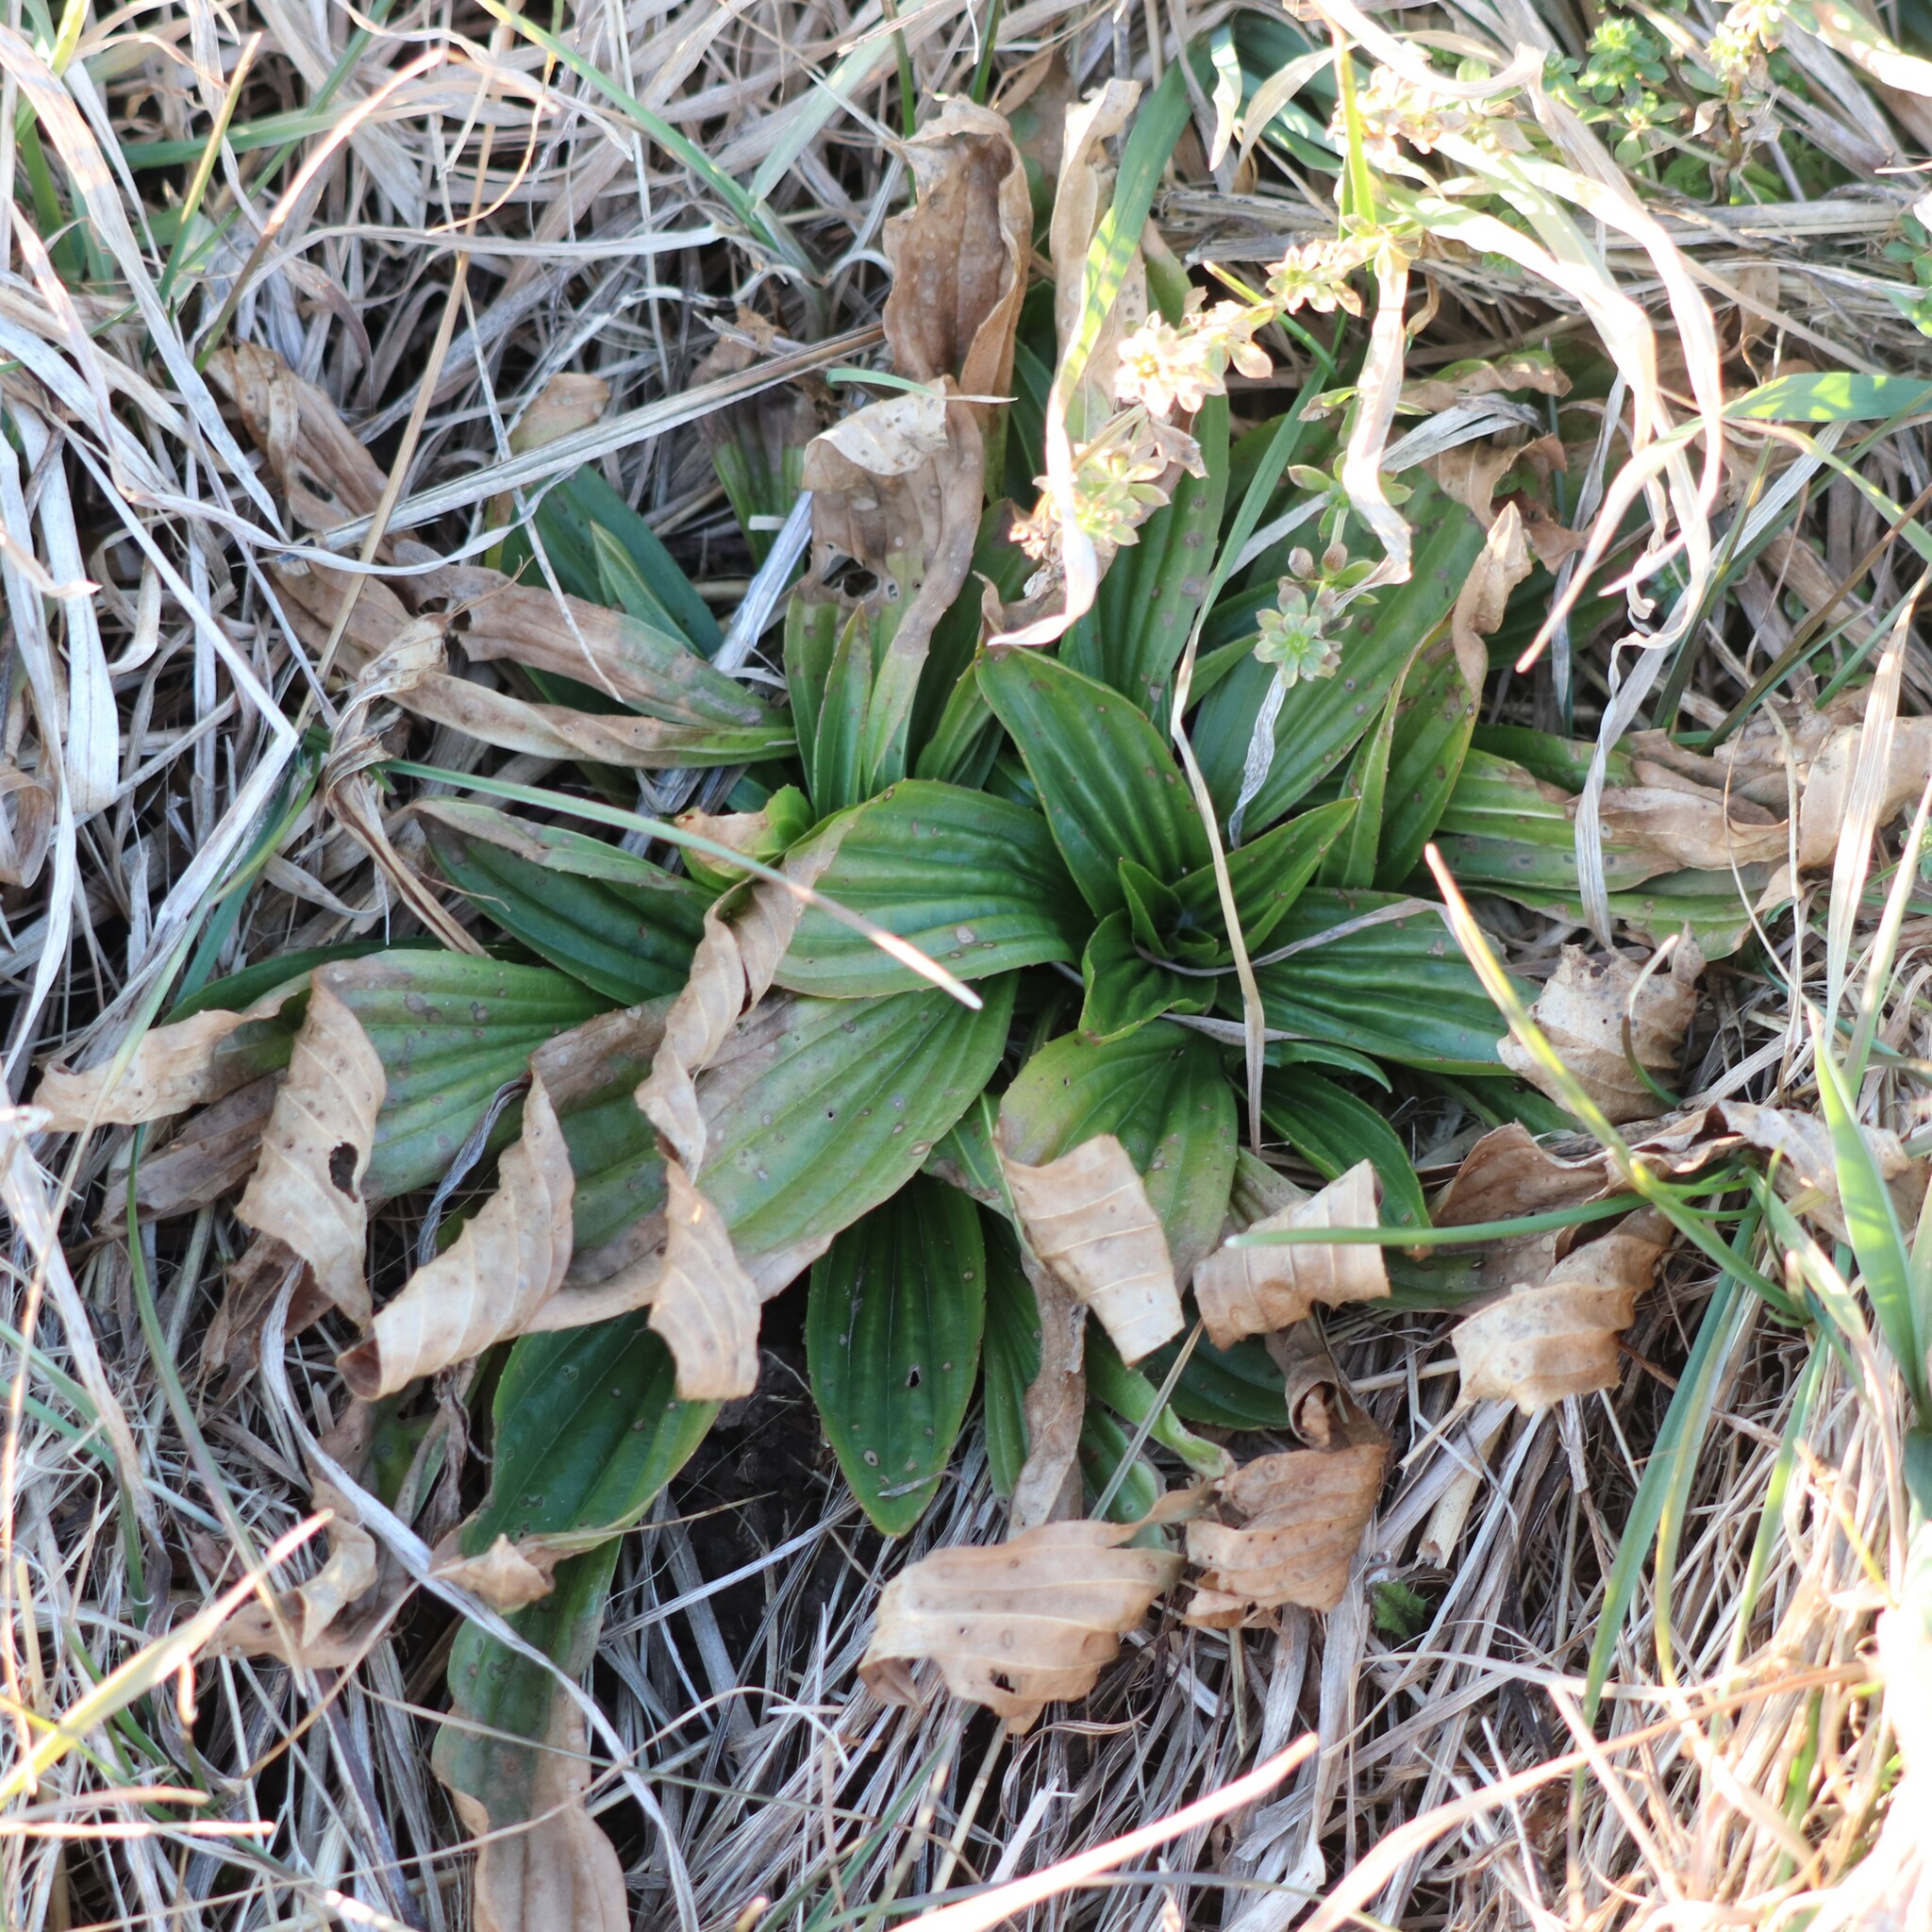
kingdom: Plantae
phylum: Tracheophyta
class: Magnoliopsida
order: Lamiales
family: Plantaginaceae
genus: Plantago
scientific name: Plantago lanceolata
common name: Ribwort plantain
